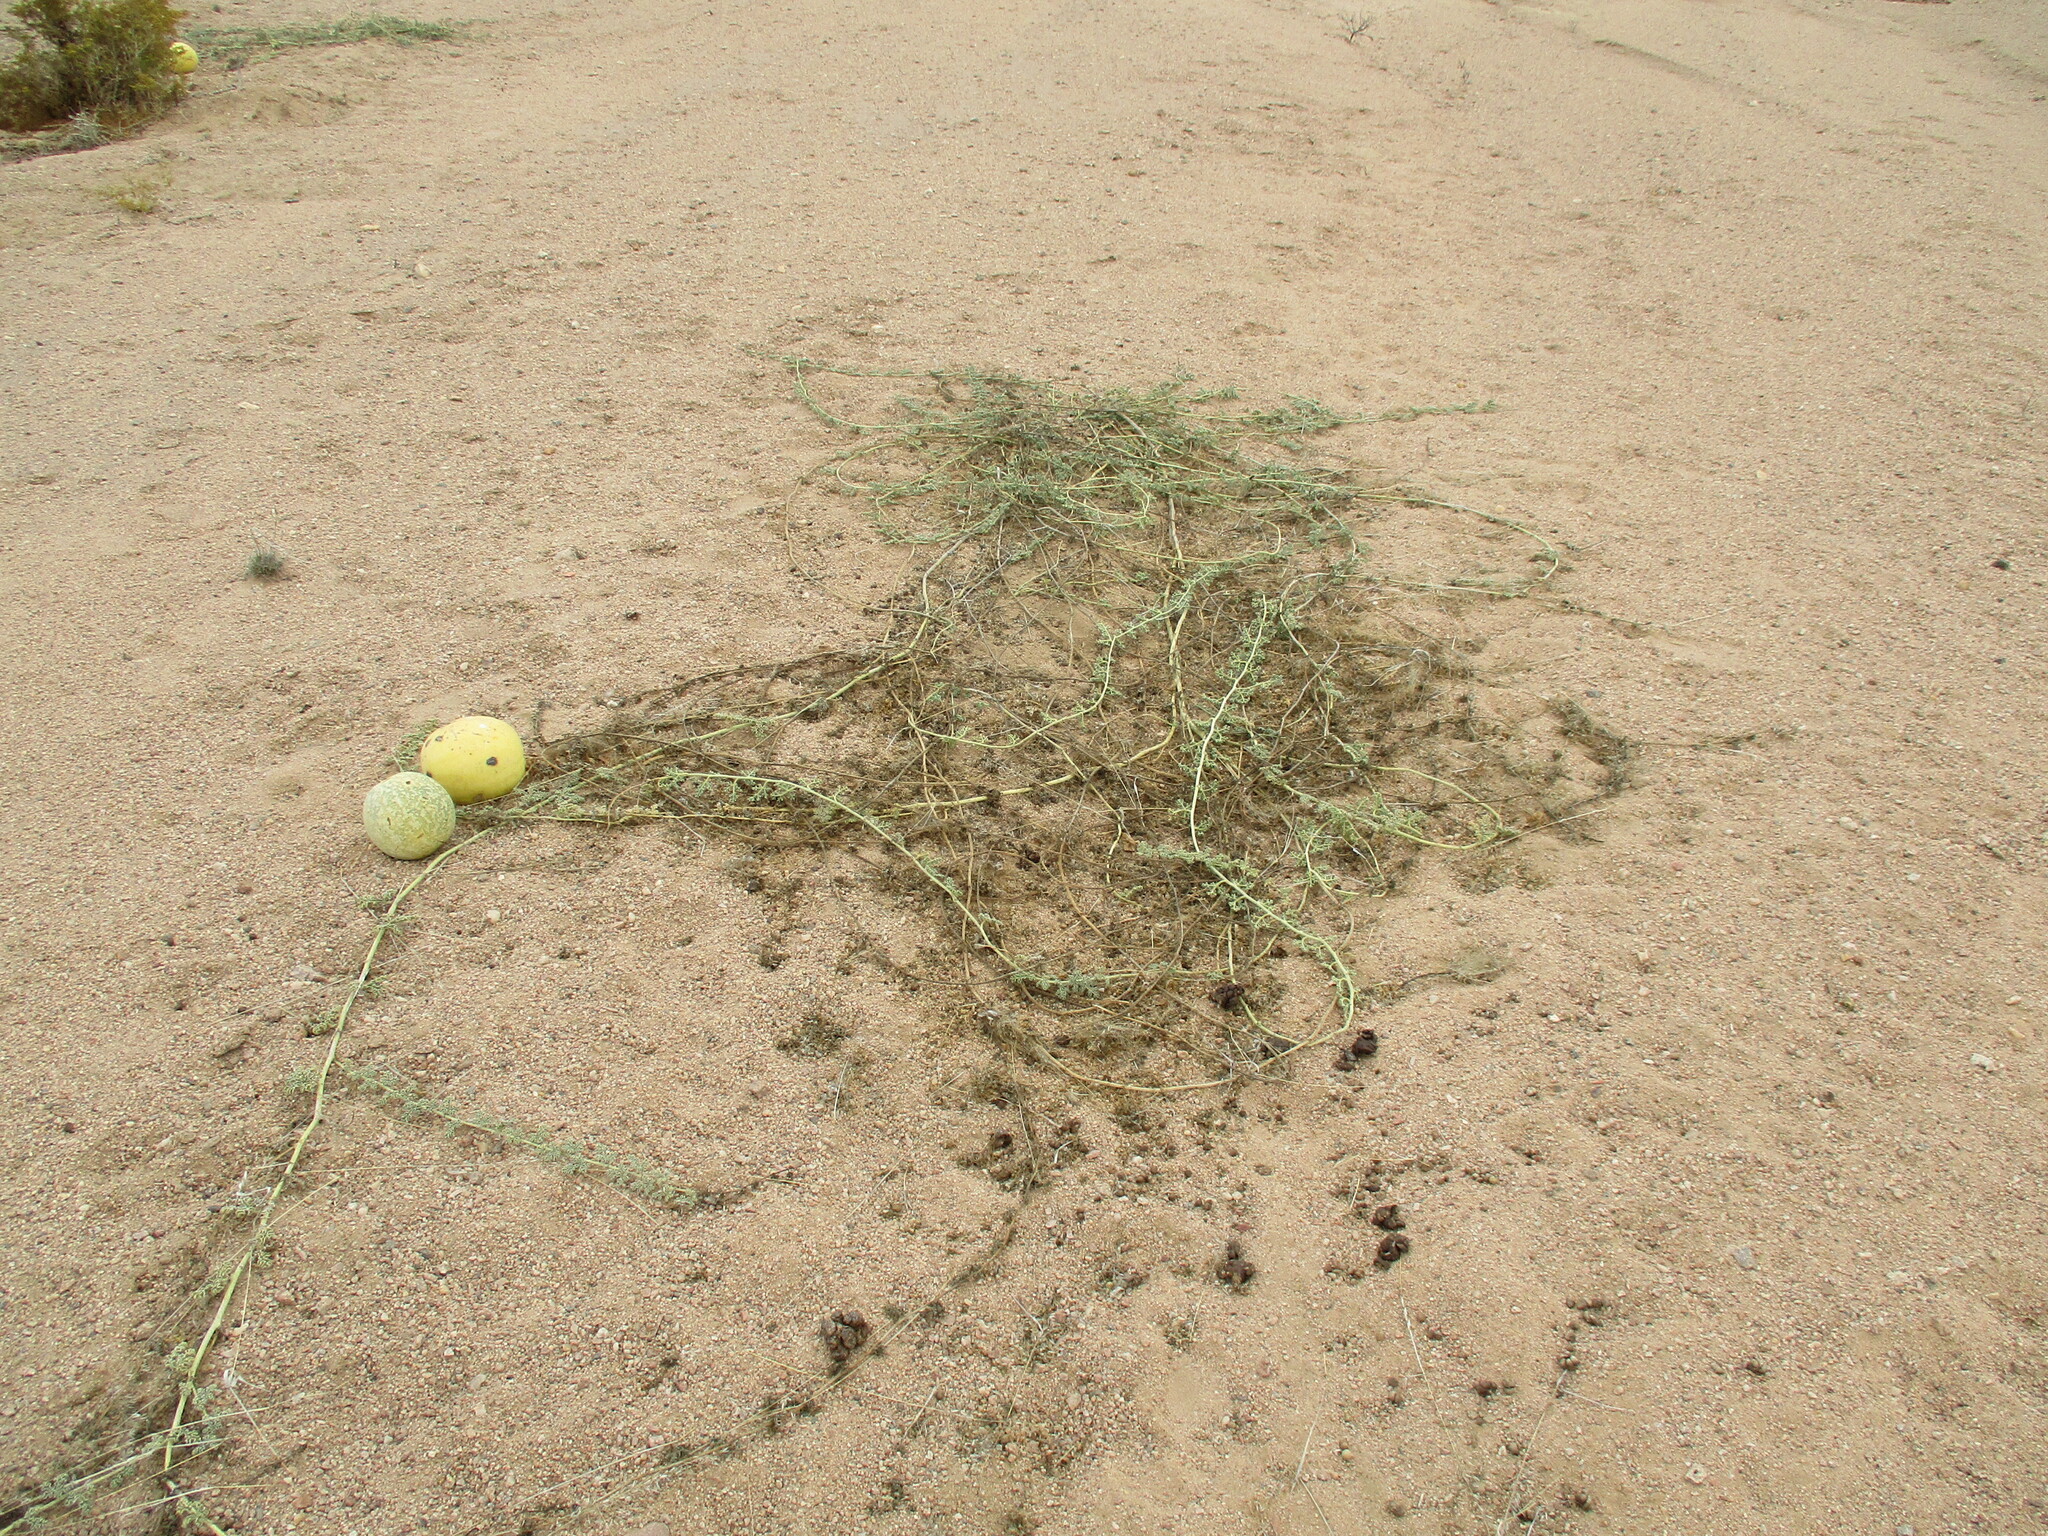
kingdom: Plantae
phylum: Tracheophyta
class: Magnoliopsida
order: Cucurbitales
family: Cucurbitaceae
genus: Citrullus
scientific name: Citrullus ecirrhosus
